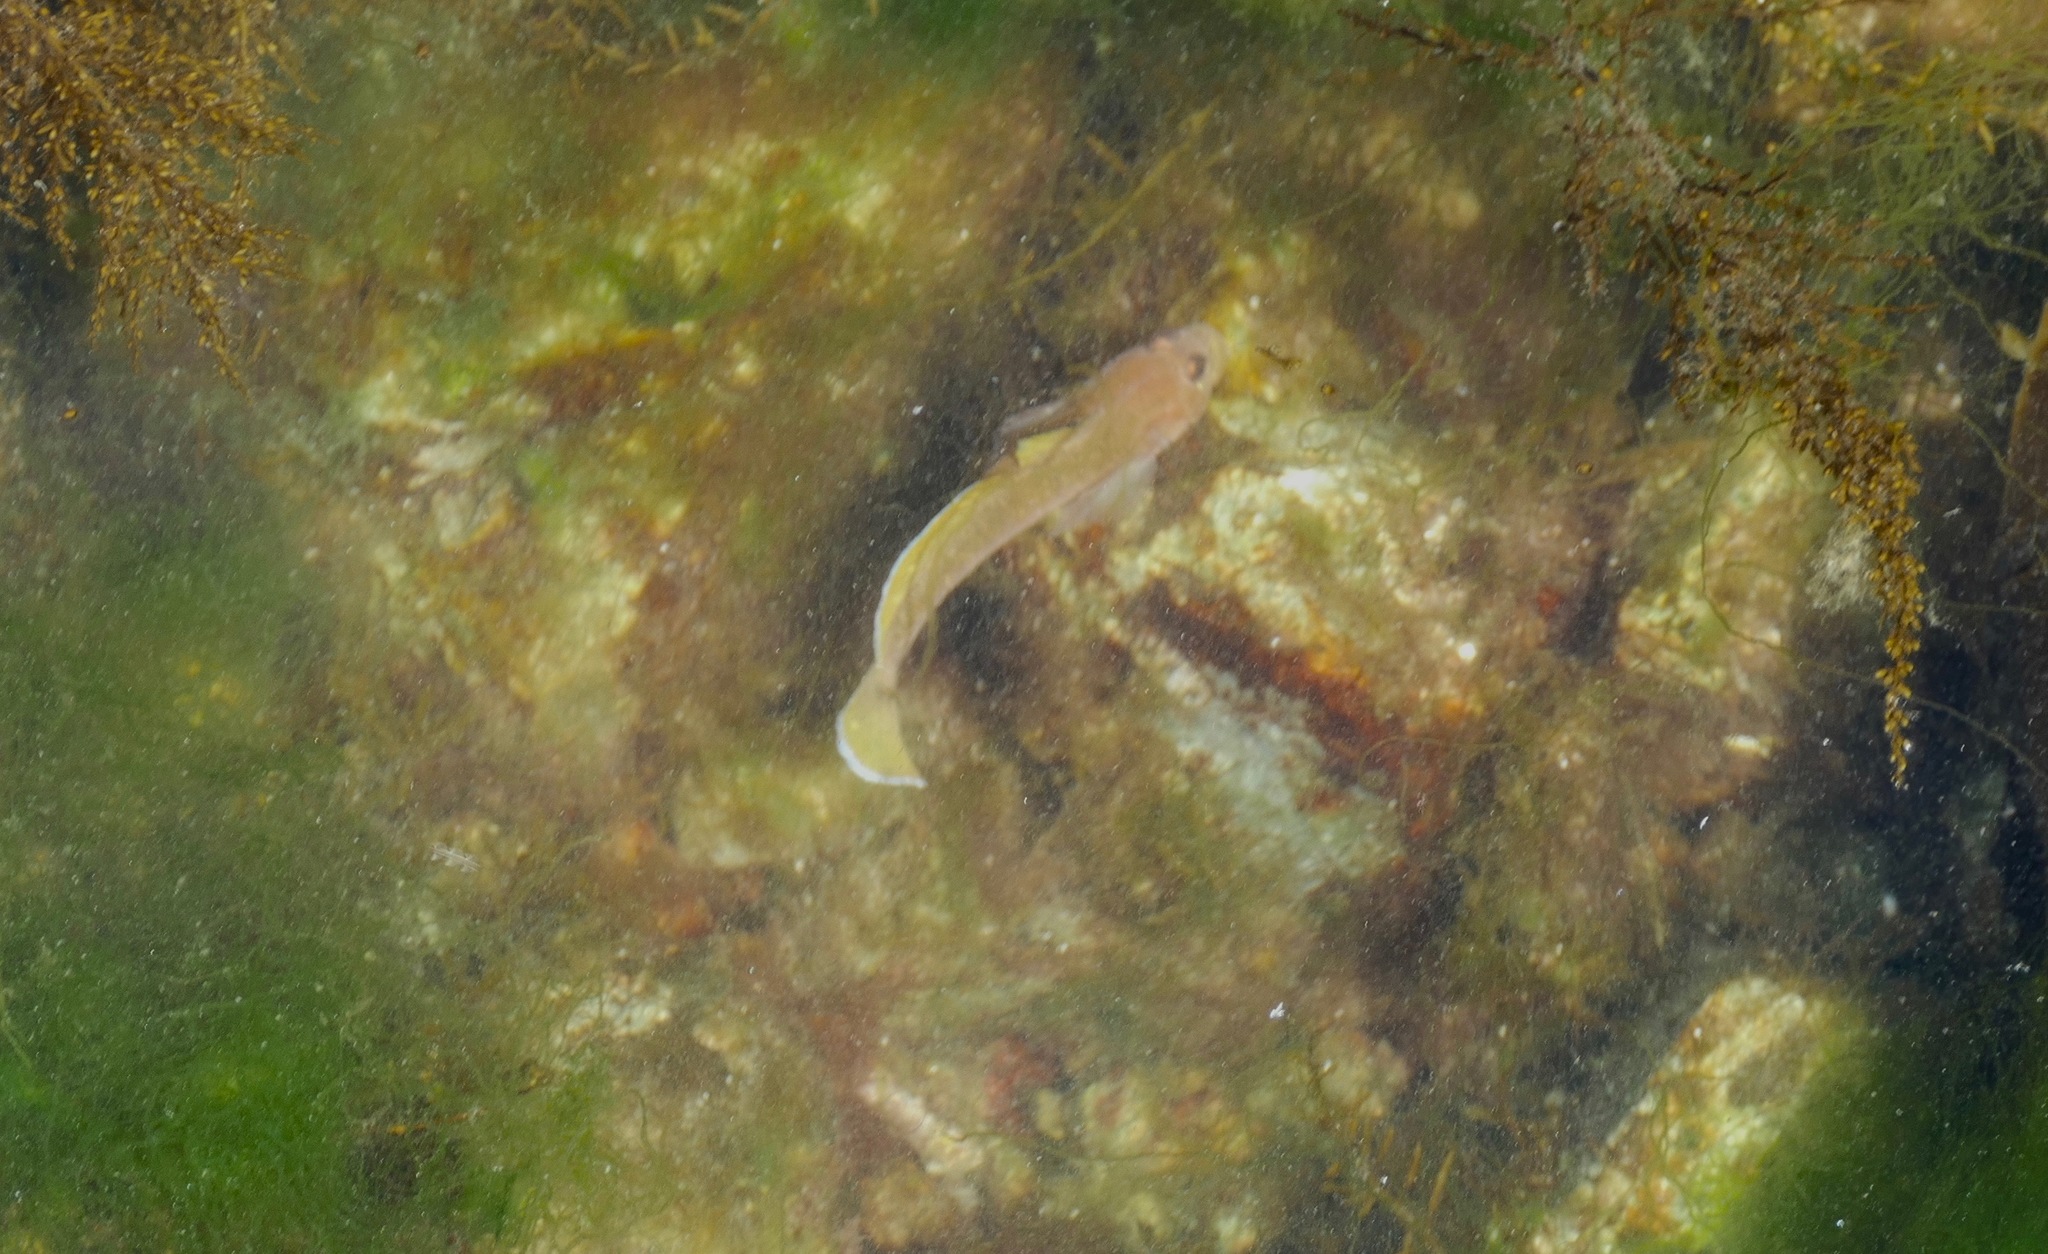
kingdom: Animalia
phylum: Chordata
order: Perciformes
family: Gobiidae
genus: Rhinogobiops
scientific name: Rhinogobiops nicholsii
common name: Blackeye goby
